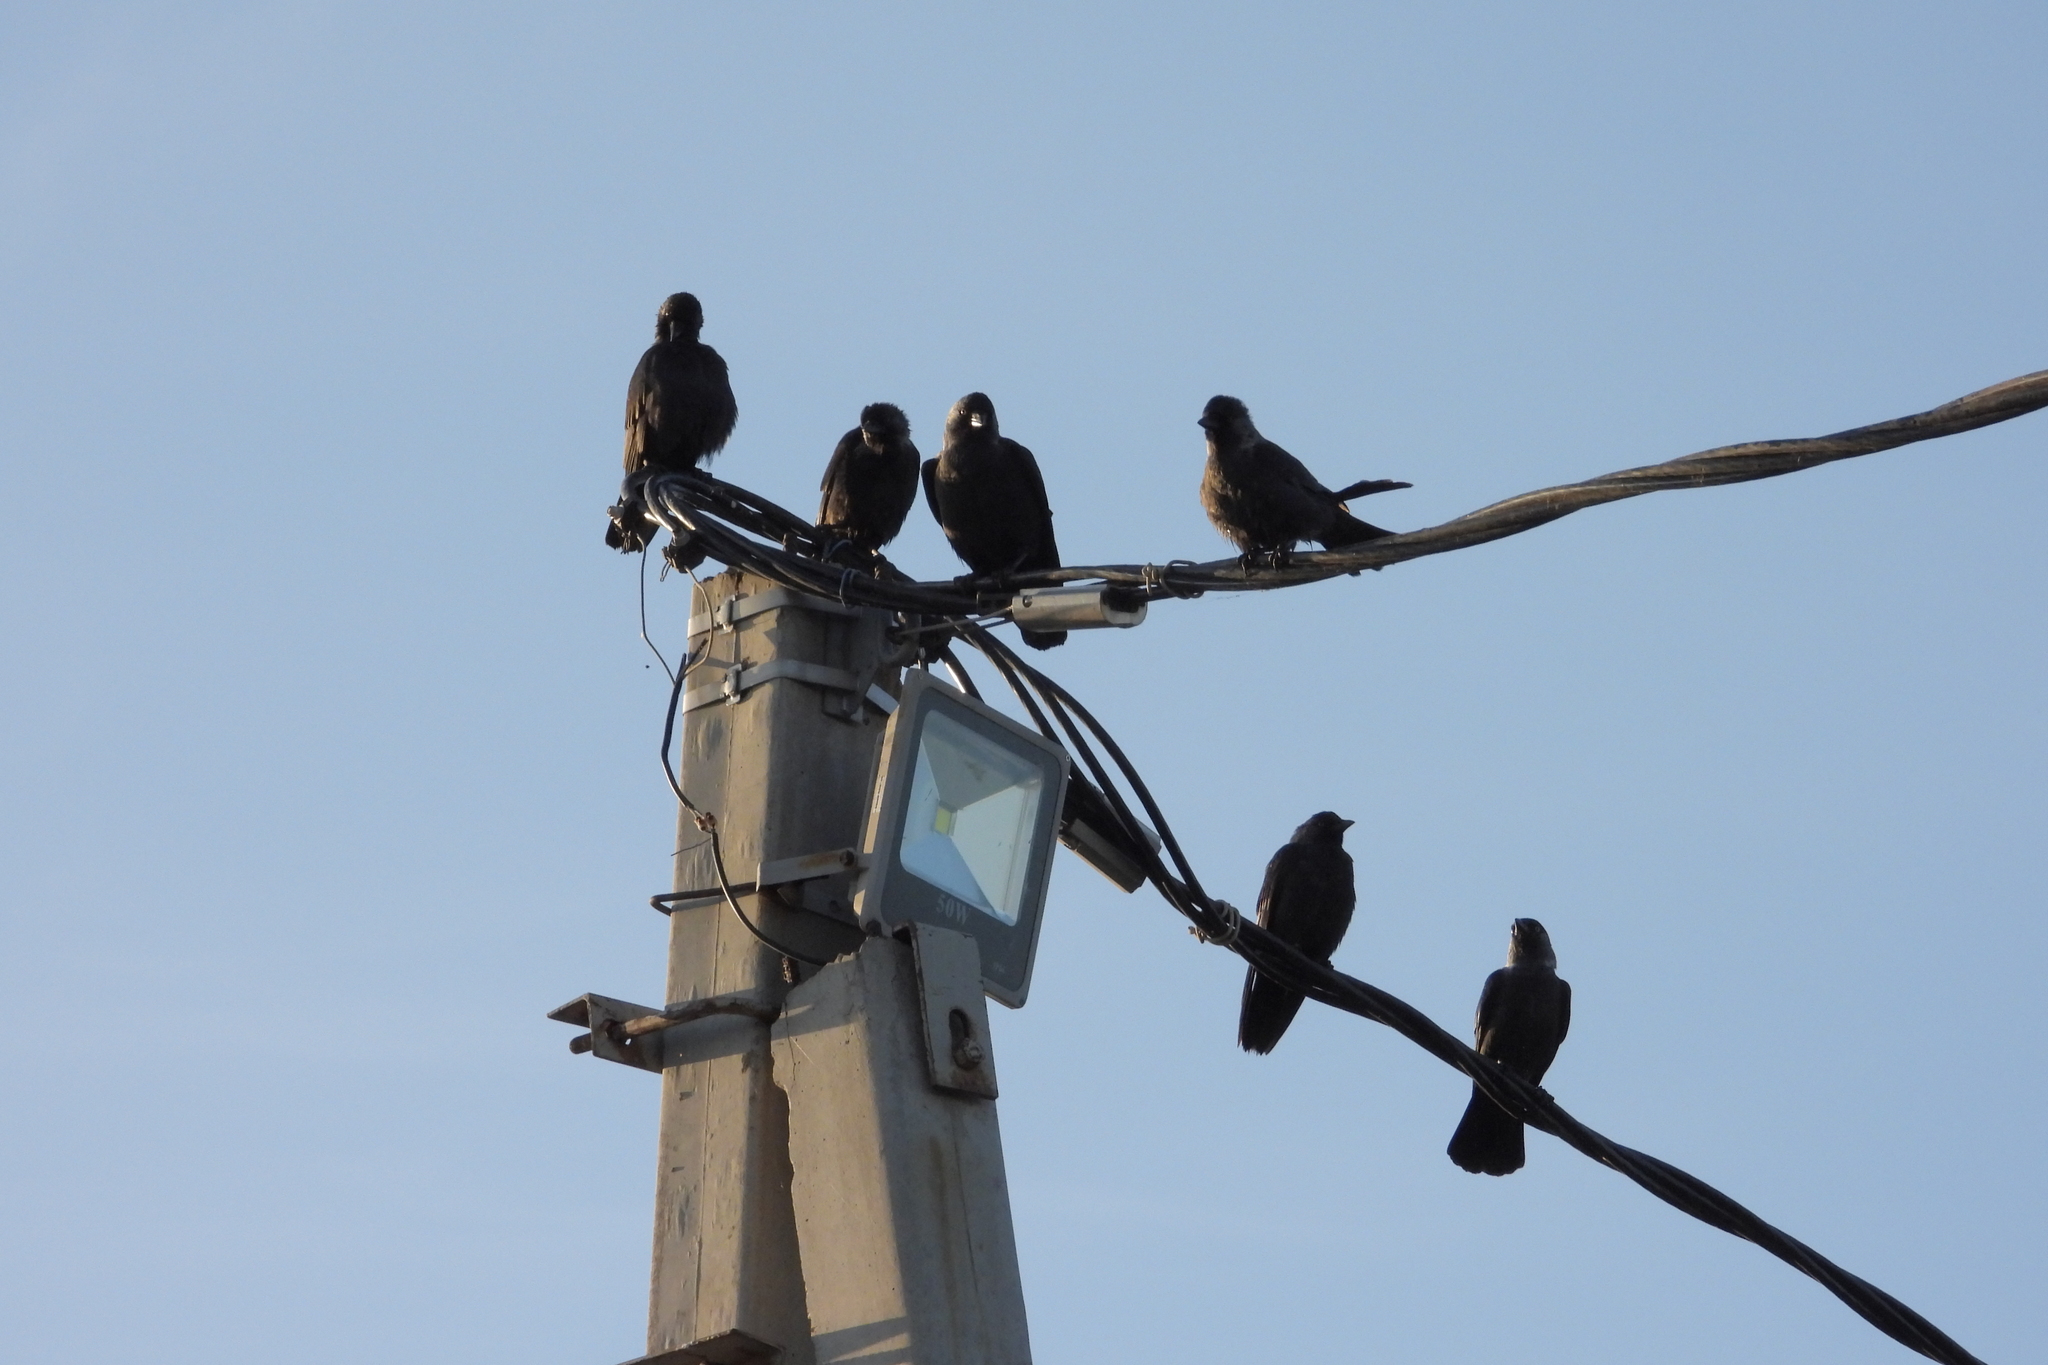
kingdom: Animalia
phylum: Chordata
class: Aves
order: Passeriformes
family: Corvidae
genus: Coloeus
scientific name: Coloeus monedula
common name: Western jackdaw
